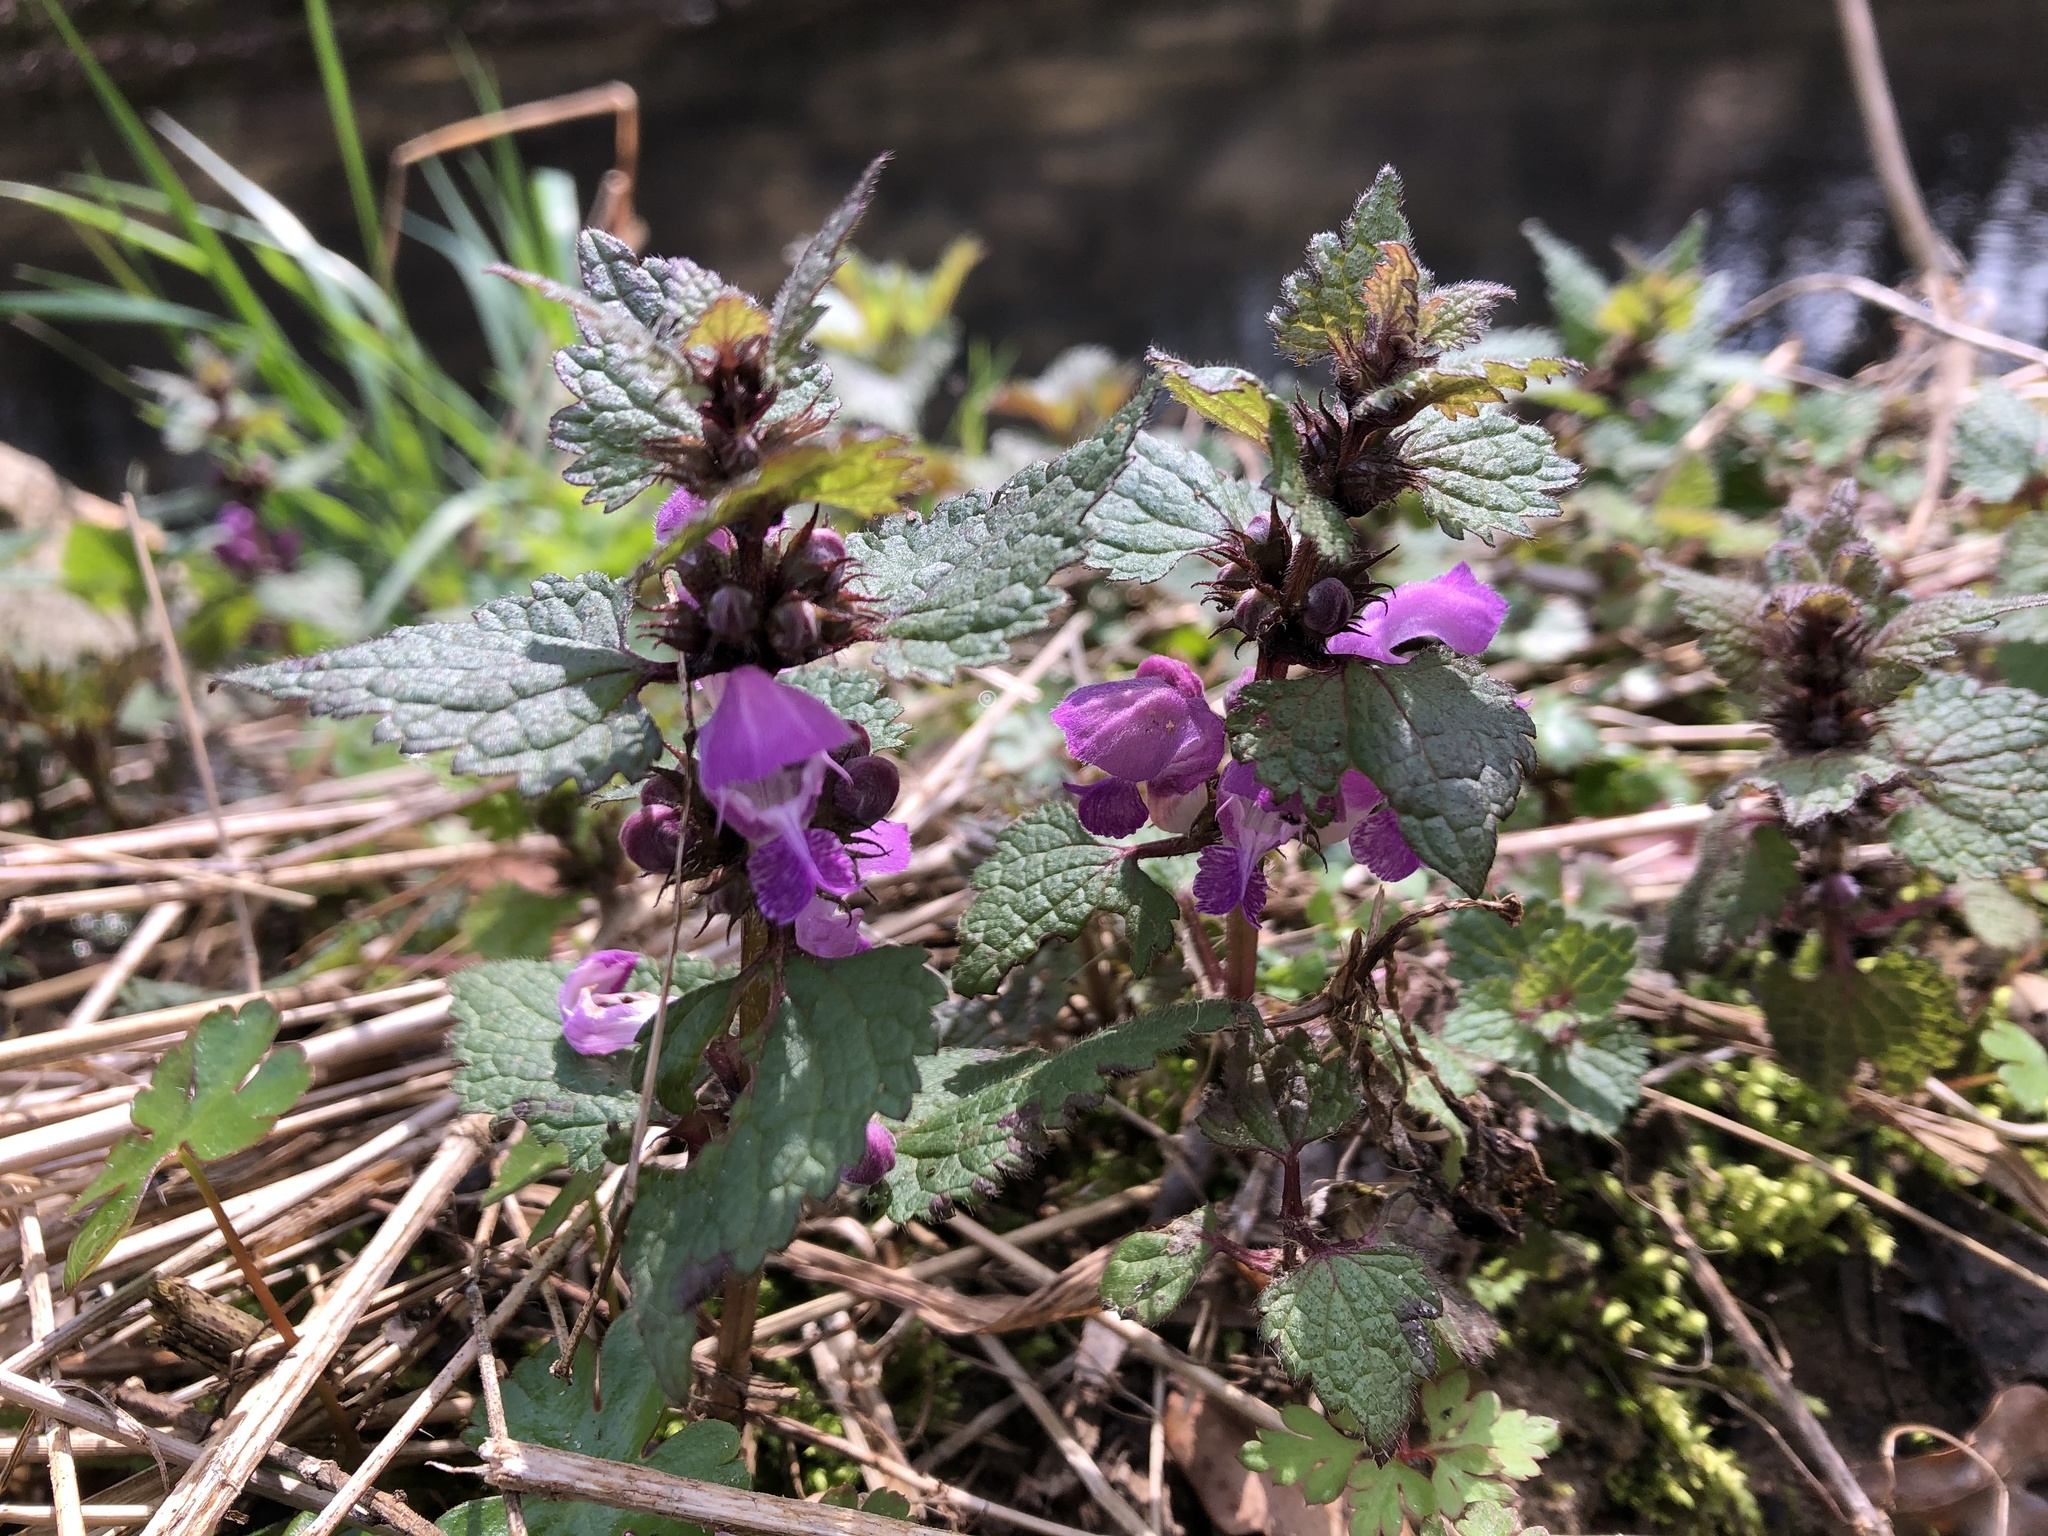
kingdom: Plantae
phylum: Tracheophyta
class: Magnoliopsida
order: Lamiales
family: Lamiaceae
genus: Lamium
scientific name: Lamium maculatum
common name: Spotted dead-nettle
